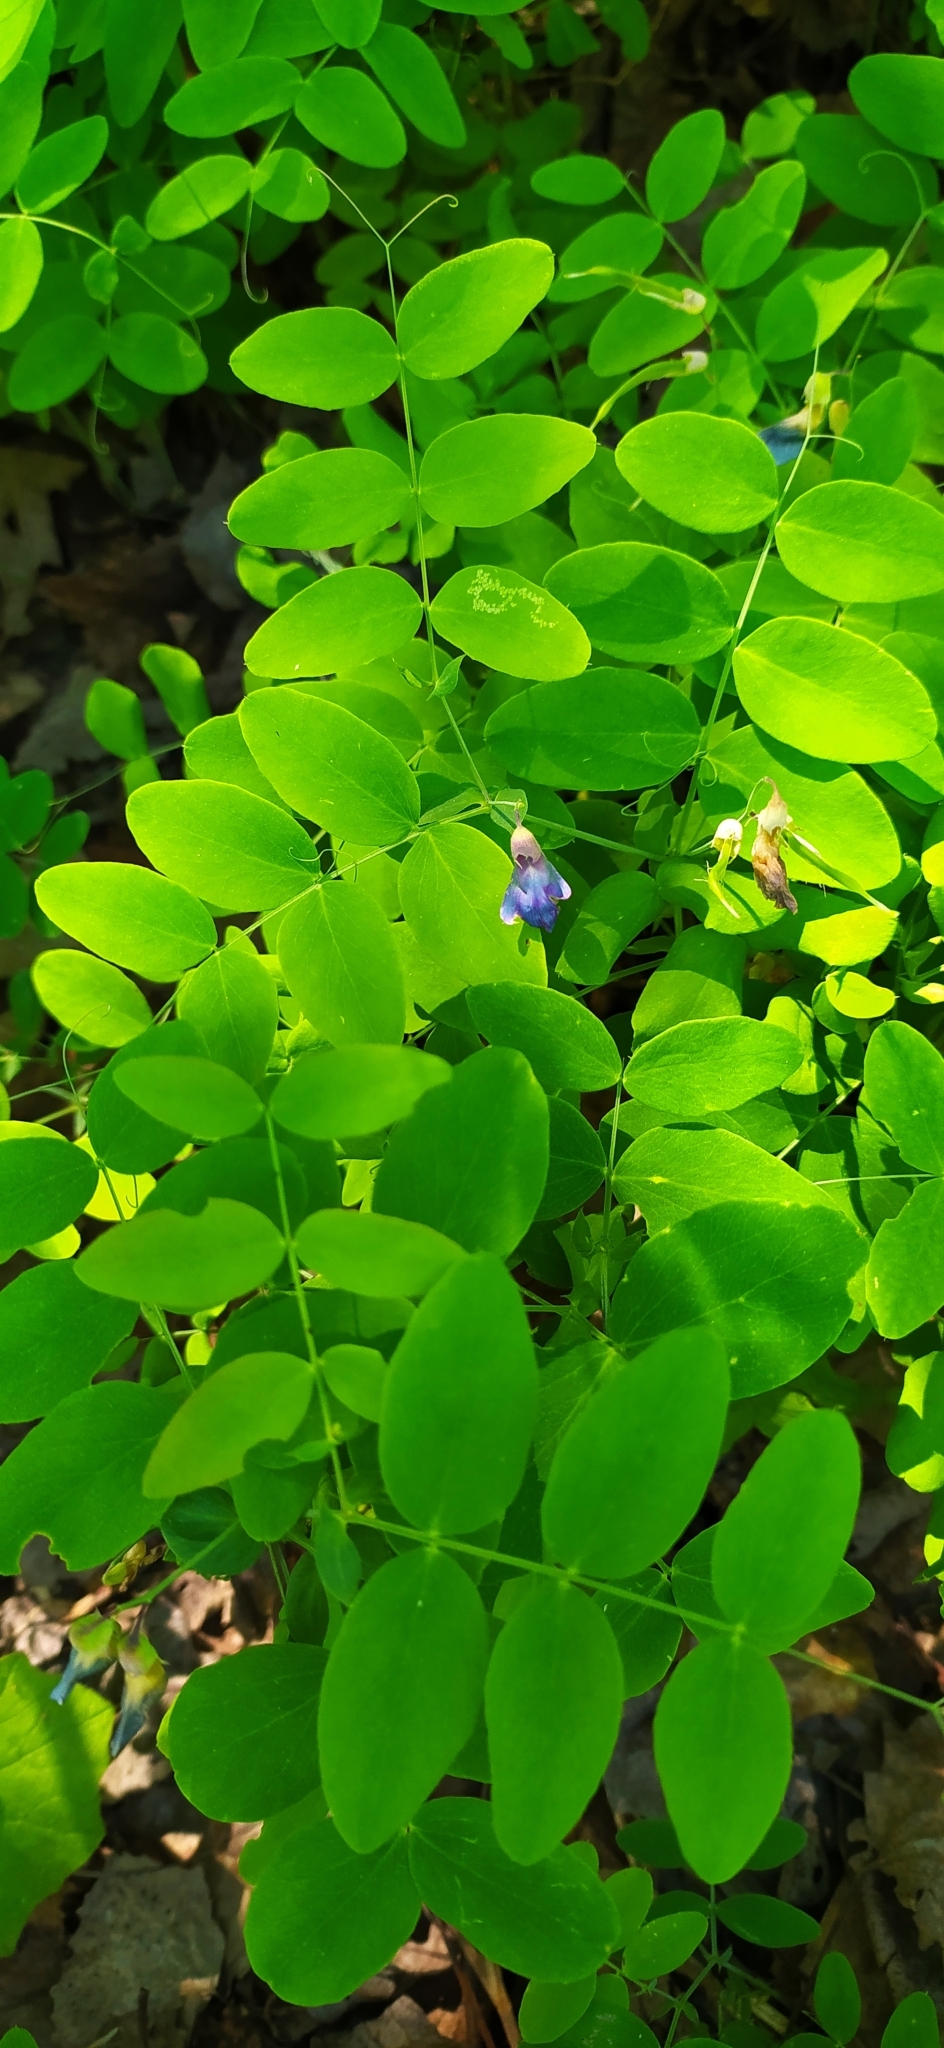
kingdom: Plantae
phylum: Tracheophyta
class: Magnoliopsida
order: Fabales
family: Fabaceae
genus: Lathyrus
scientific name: Lathyrus humilis
